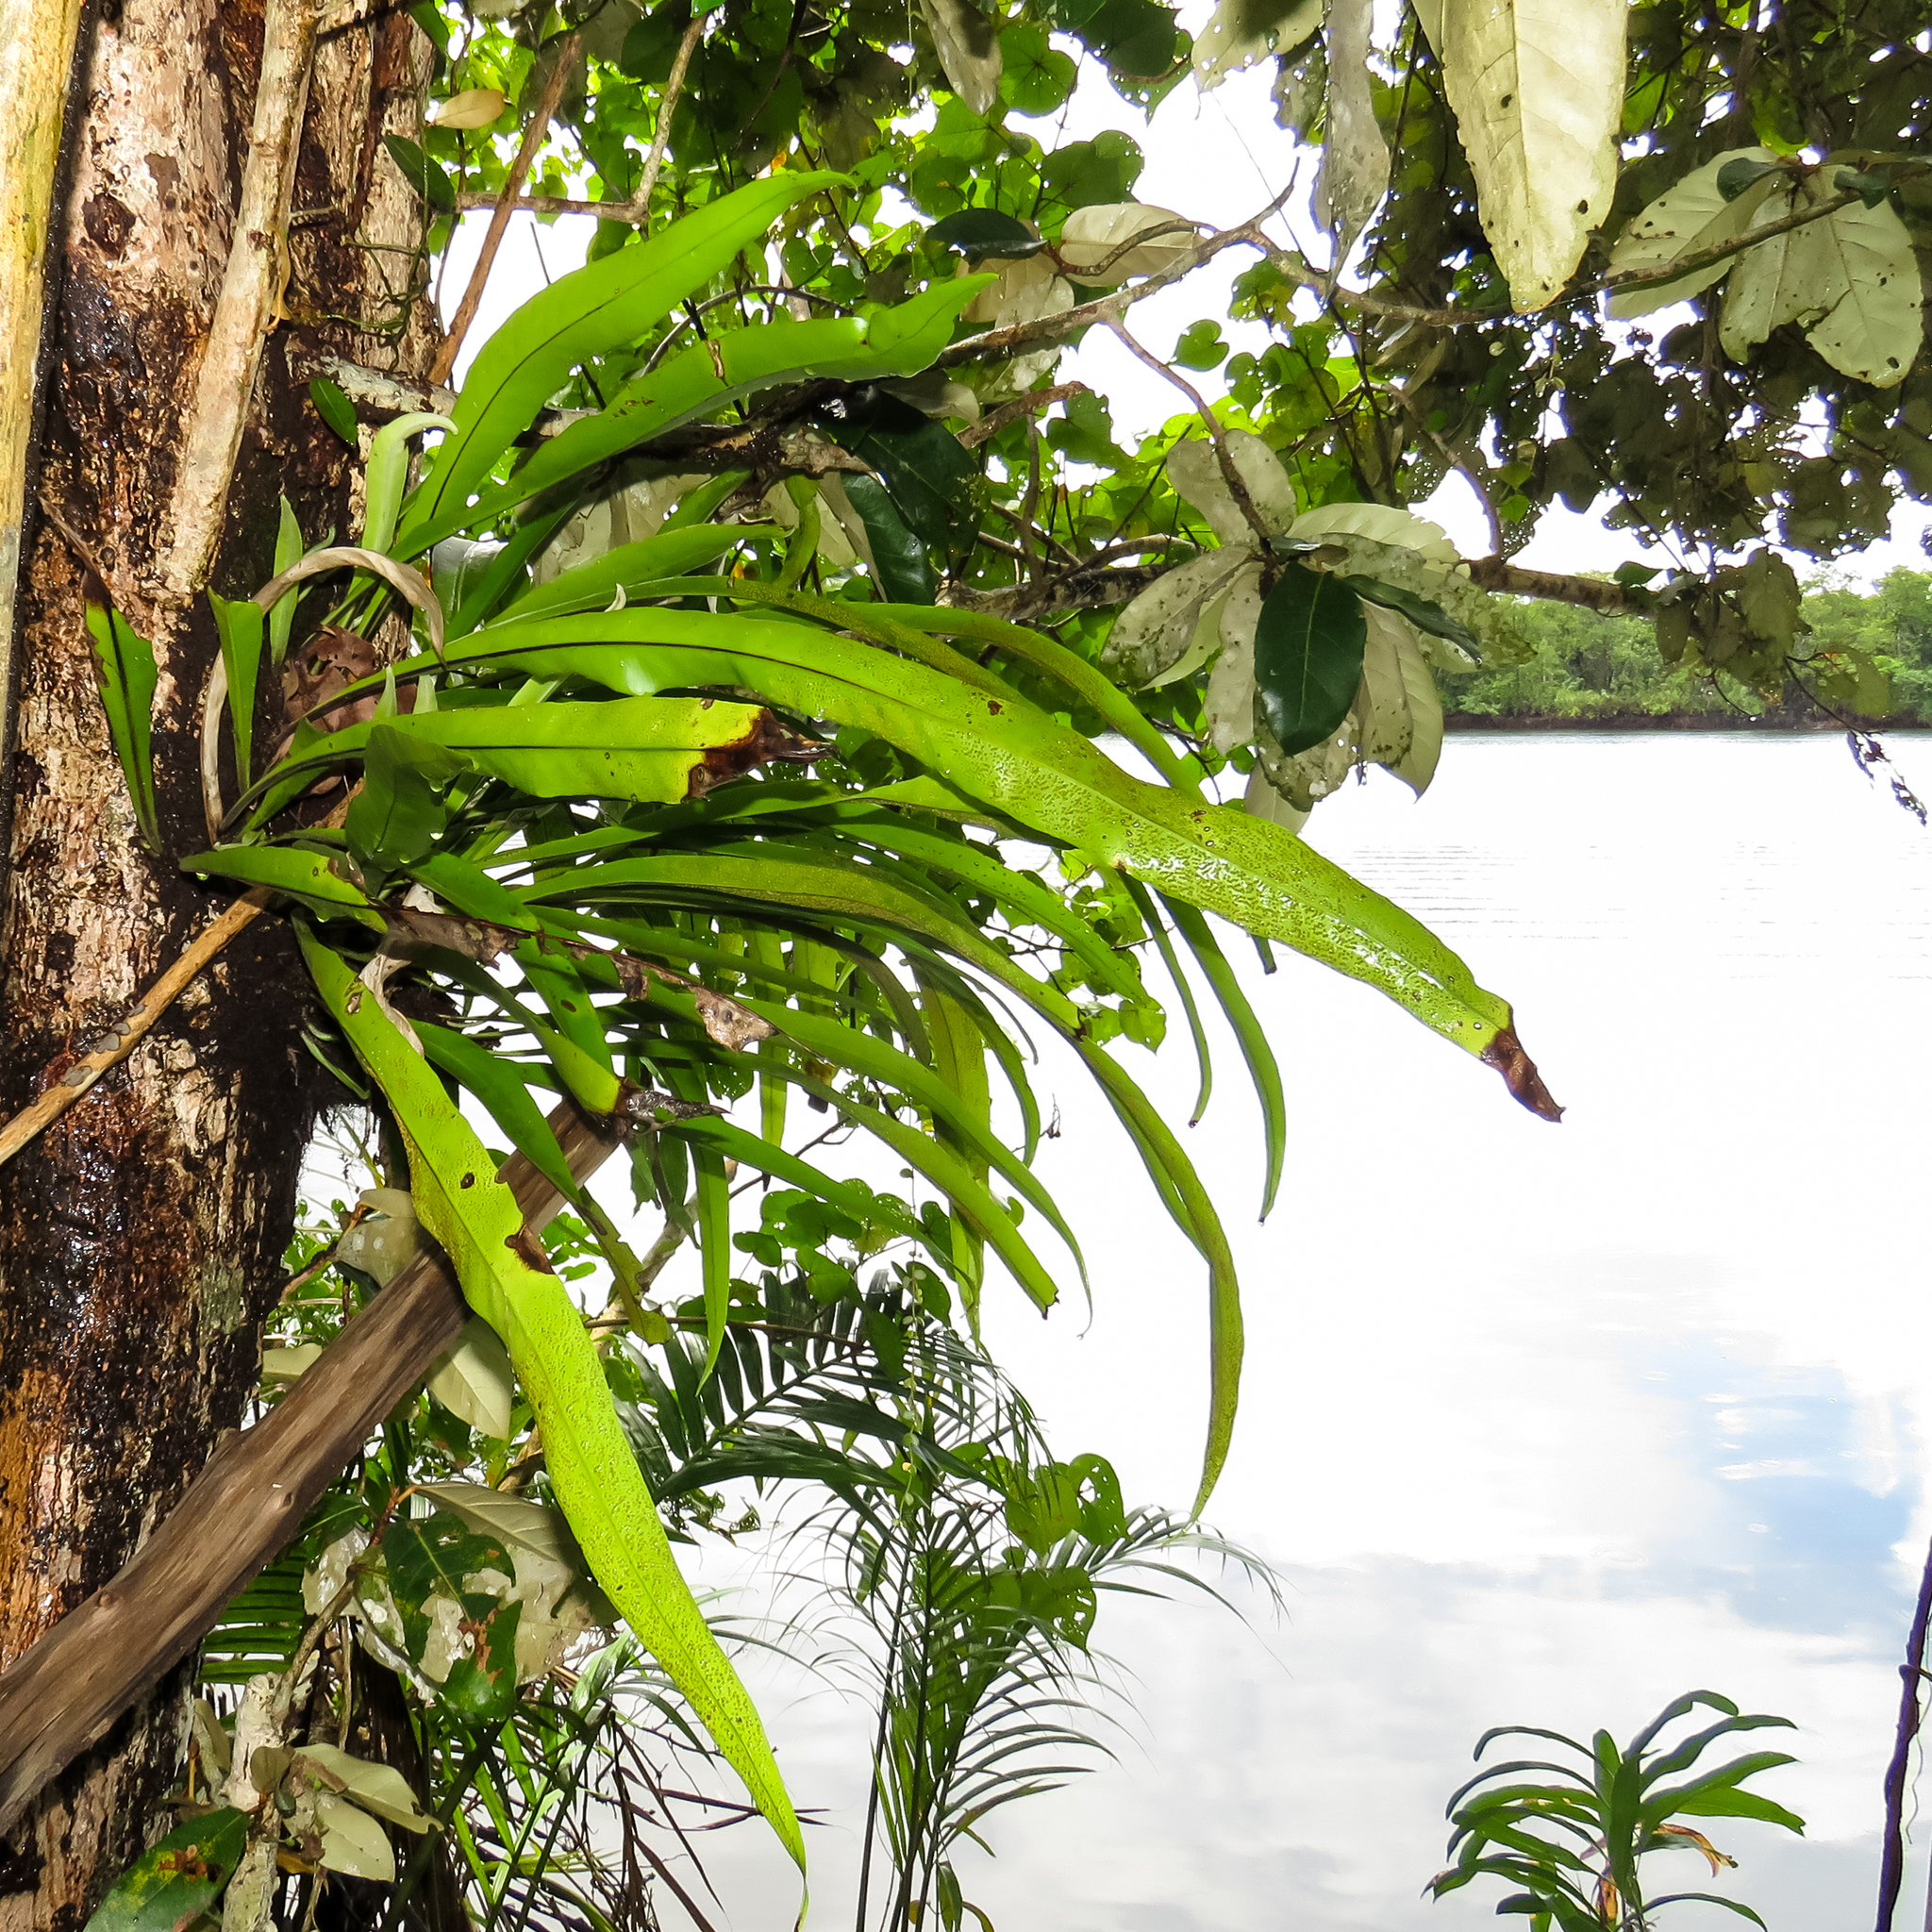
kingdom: Plantae
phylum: Tracheophyta
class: Polypodiopsida
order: Polypodiales
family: Polypodiaceae
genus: Microsorum
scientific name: Microsorum punctatum
